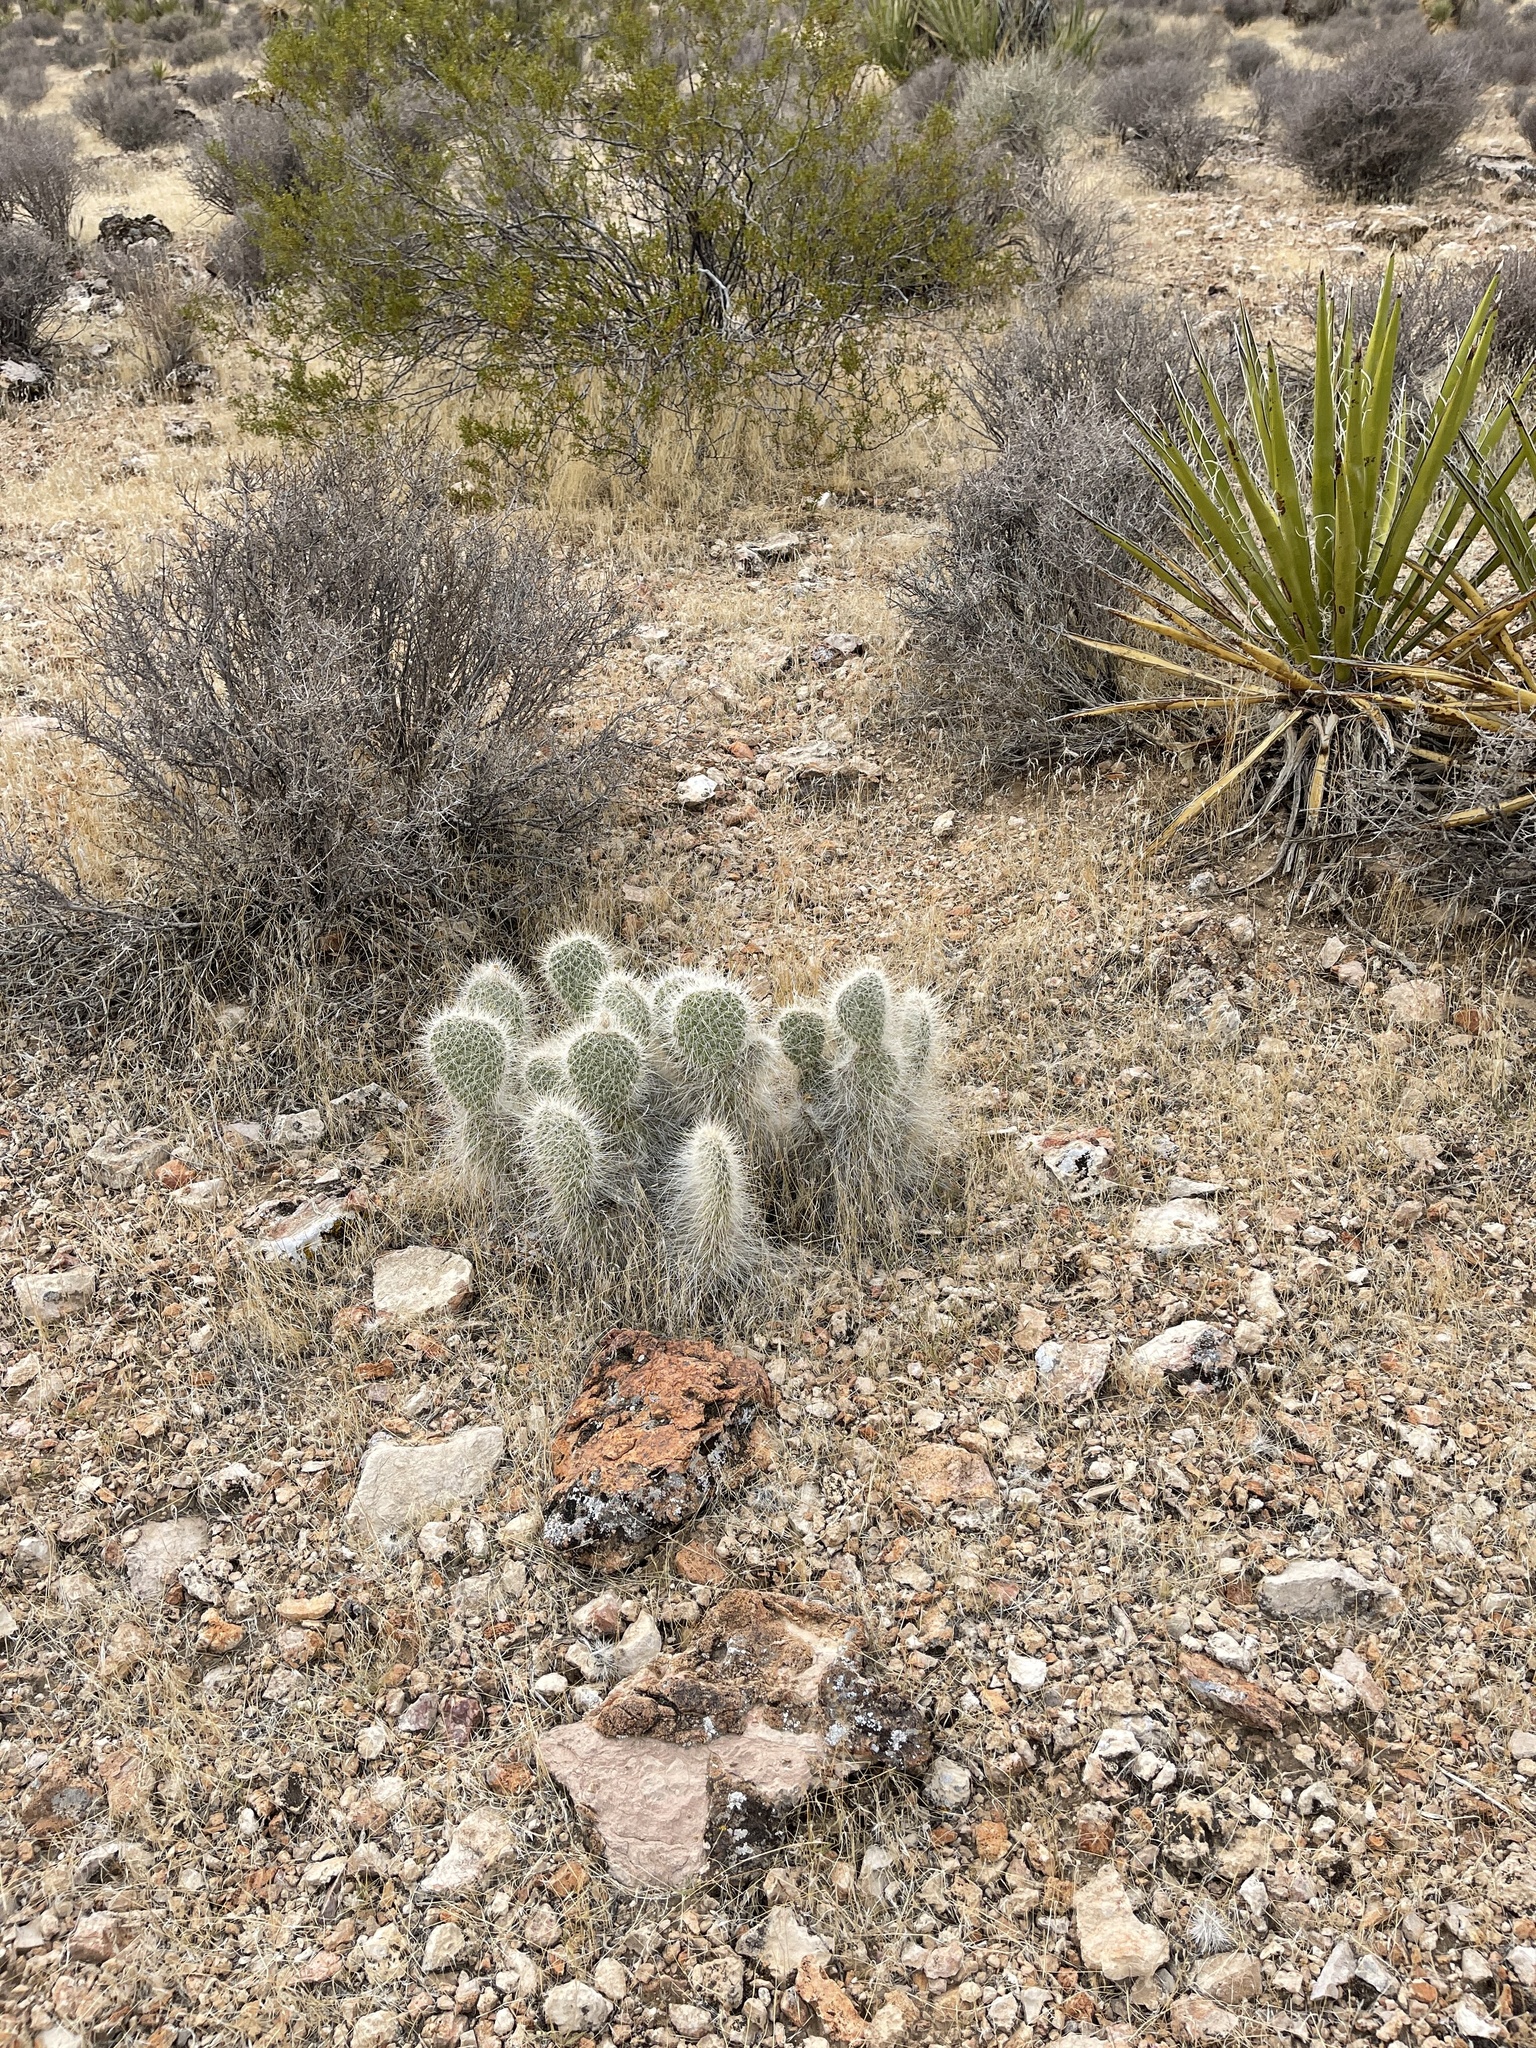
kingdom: Plantae
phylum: Tracheophyta
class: Magnoliopsida
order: Caryophyllales
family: Cactaceae
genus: Opuntia
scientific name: Opuntia polyacantha
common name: Plains prickly-pear
